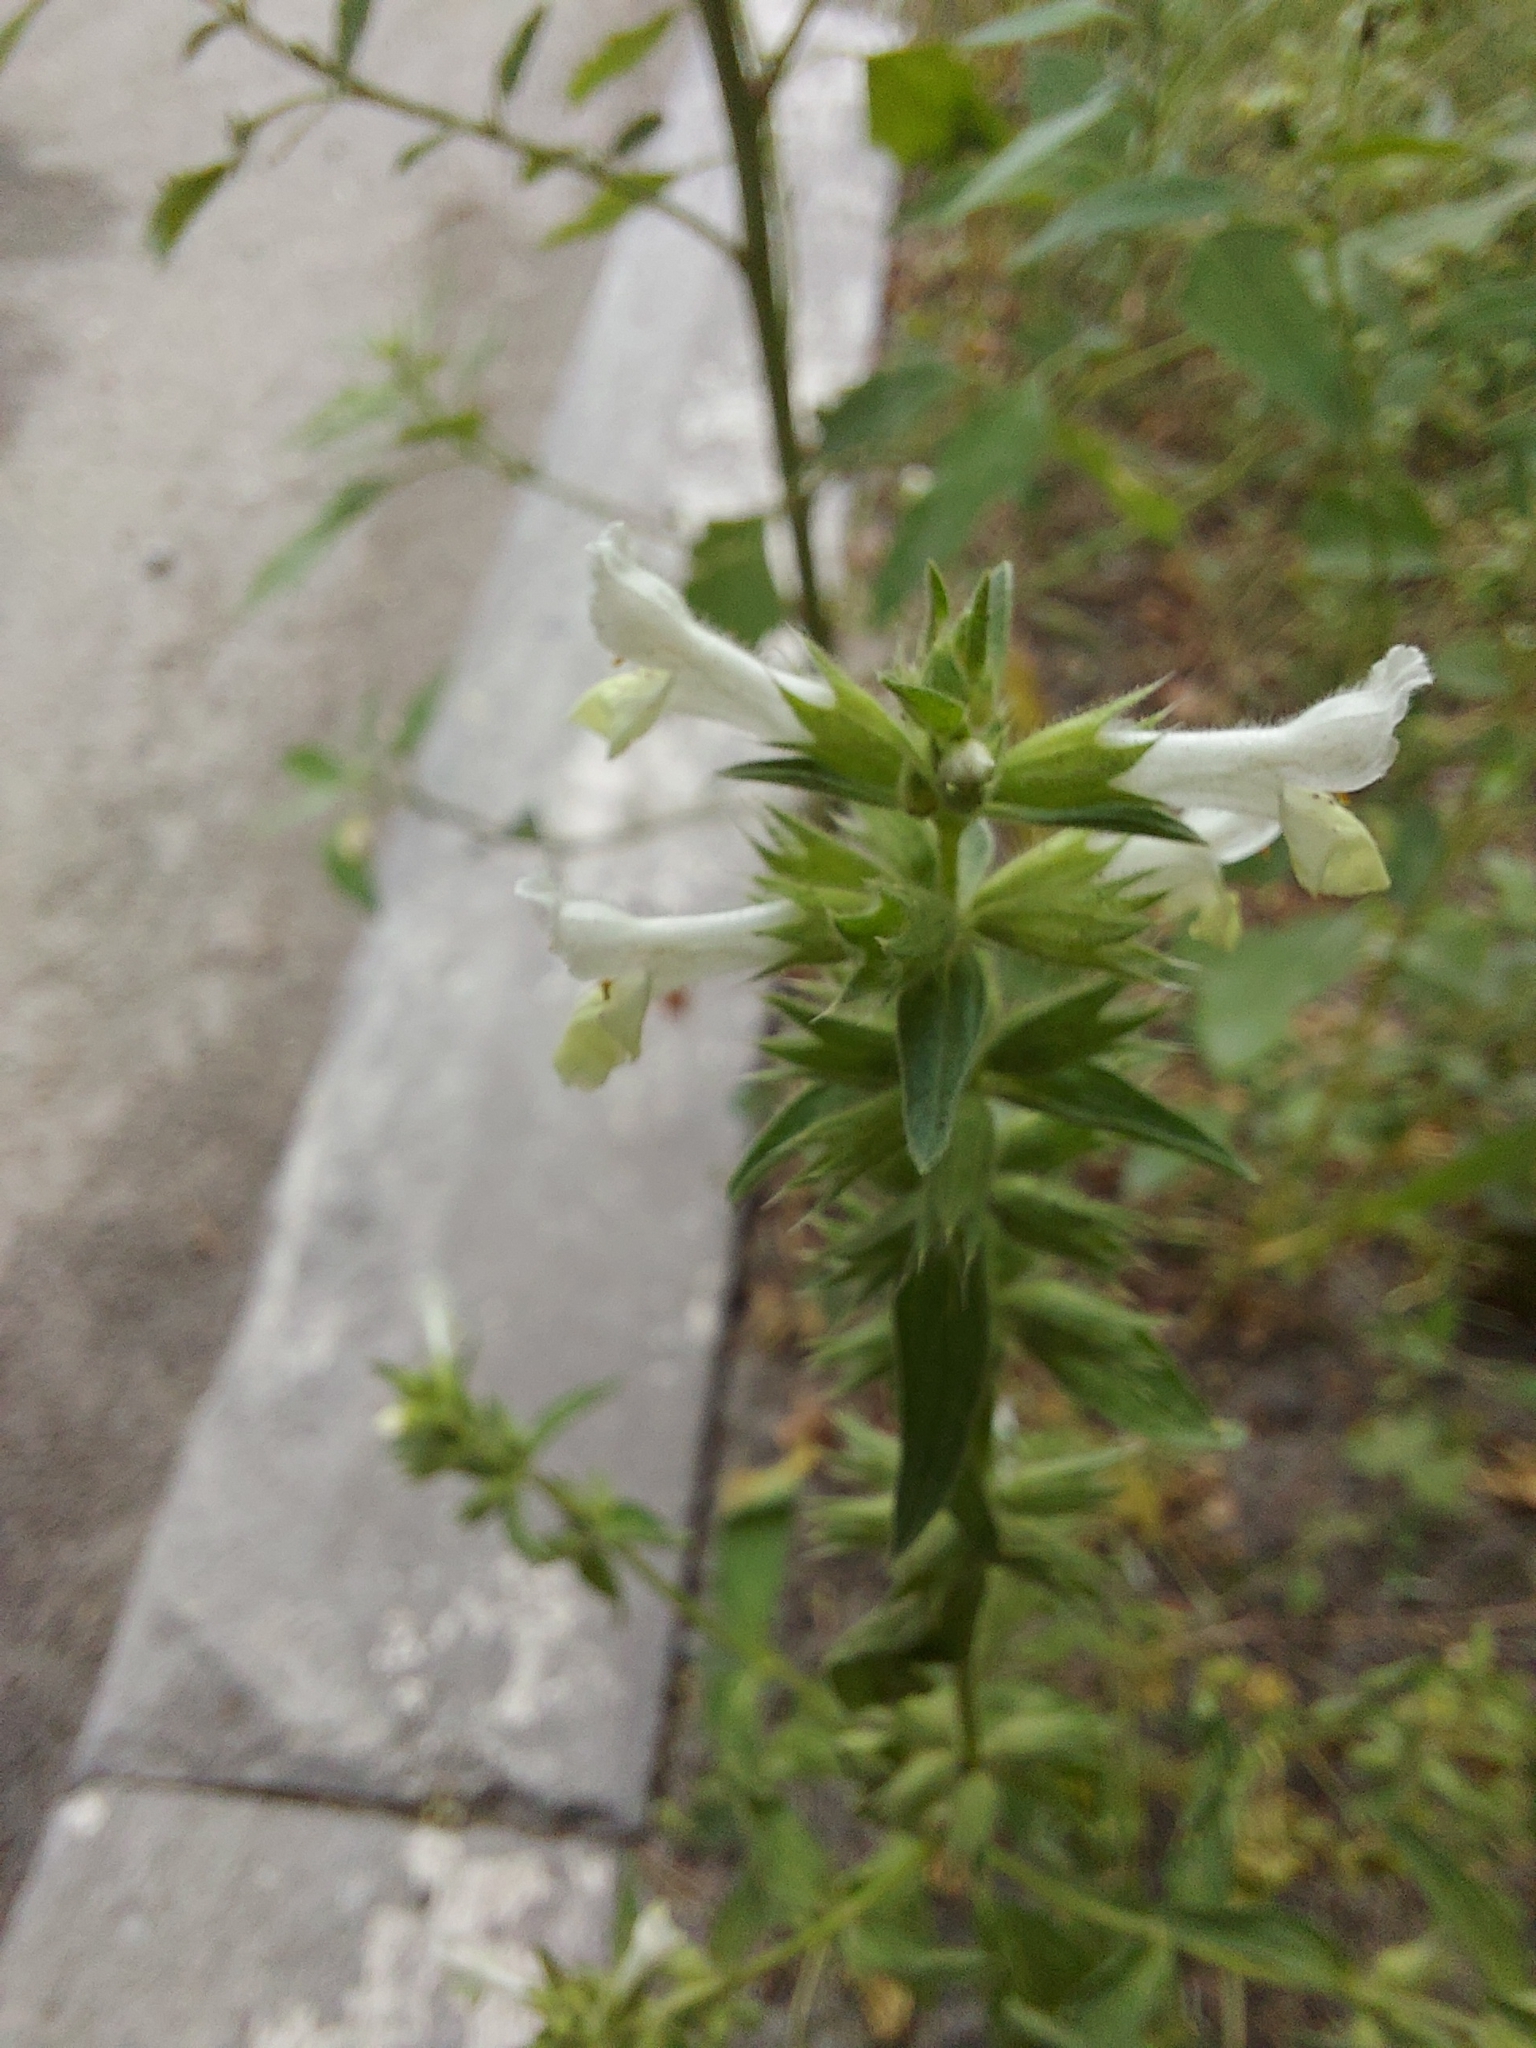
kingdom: Plantae
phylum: Tracheophyta
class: Magnoliopsida
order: Lamiales
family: Lamiaceae
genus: Stachys
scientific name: Stachys annua
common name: Annual yellow-woundwort
